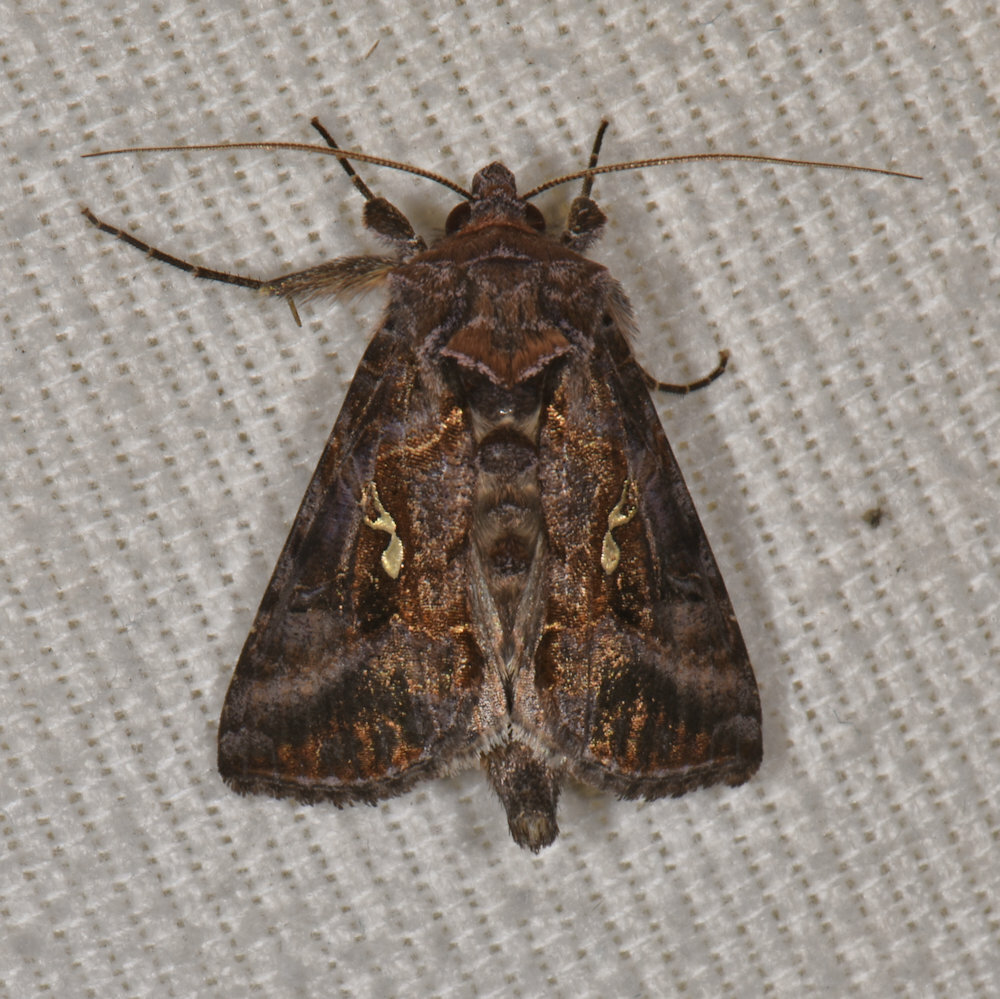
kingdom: Animalia
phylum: Arthropoda
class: Insecta
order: Lepidoptera
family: Noctuidae
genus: Autographa
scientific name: Autographa precationis
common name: Common looper moth
